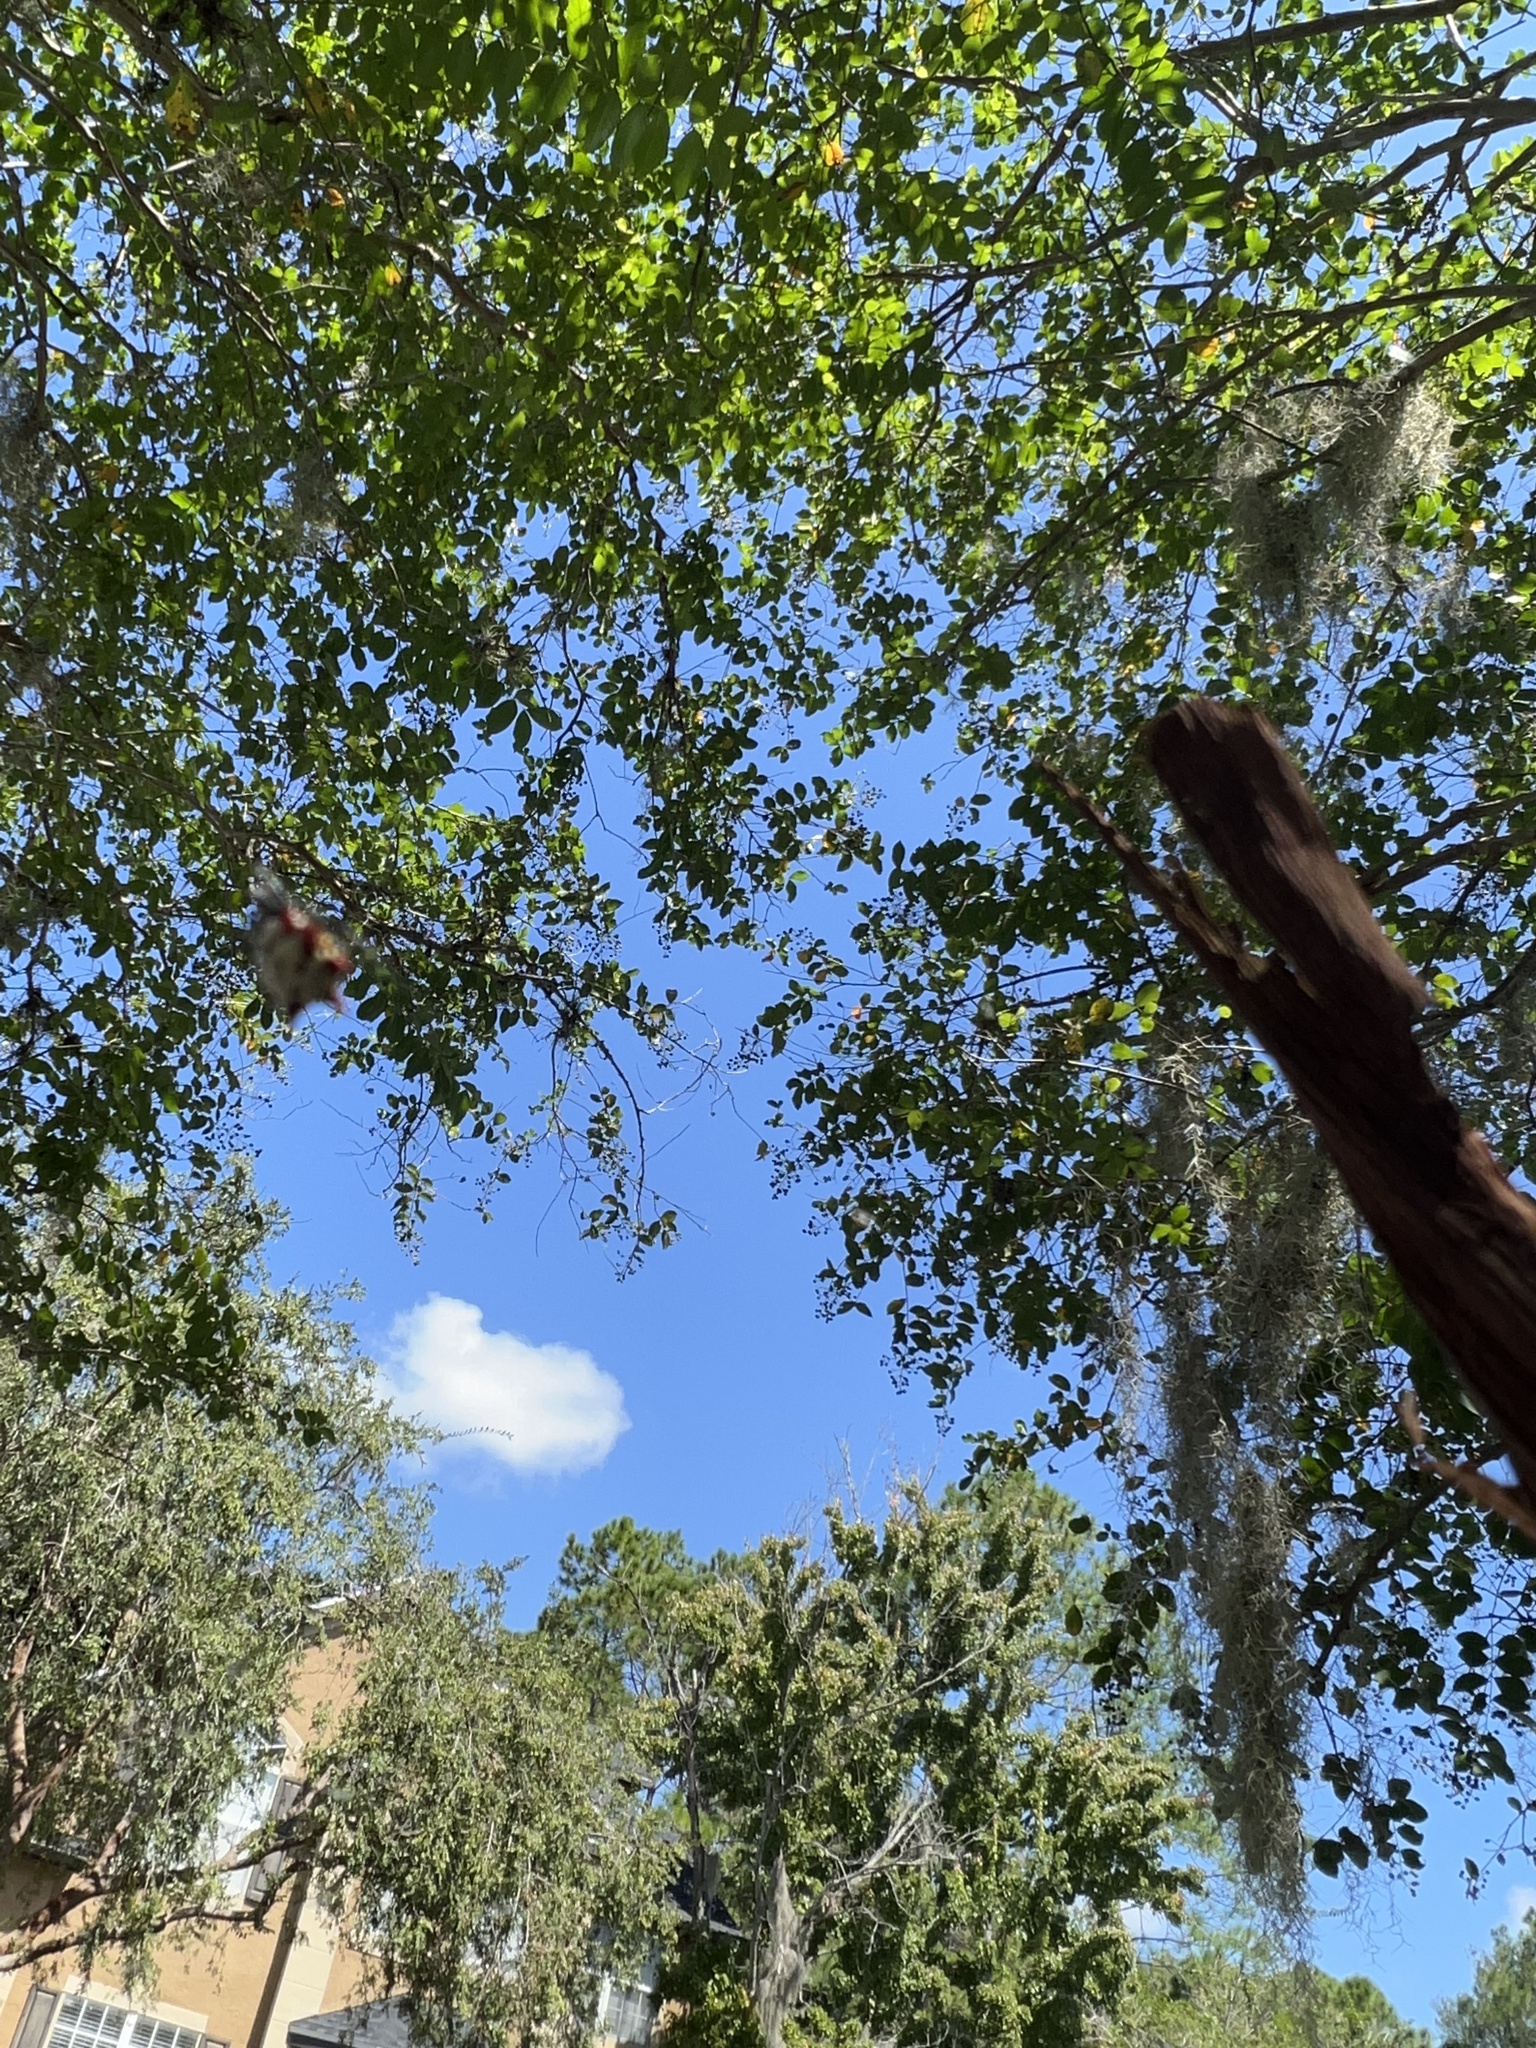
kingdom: Animalia
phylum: Arthropoda
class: Arachnida
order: Araneae
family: Araneidae
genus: Gasteracantha
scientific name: Gasteracantha cancriformis
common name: Orb weavers
